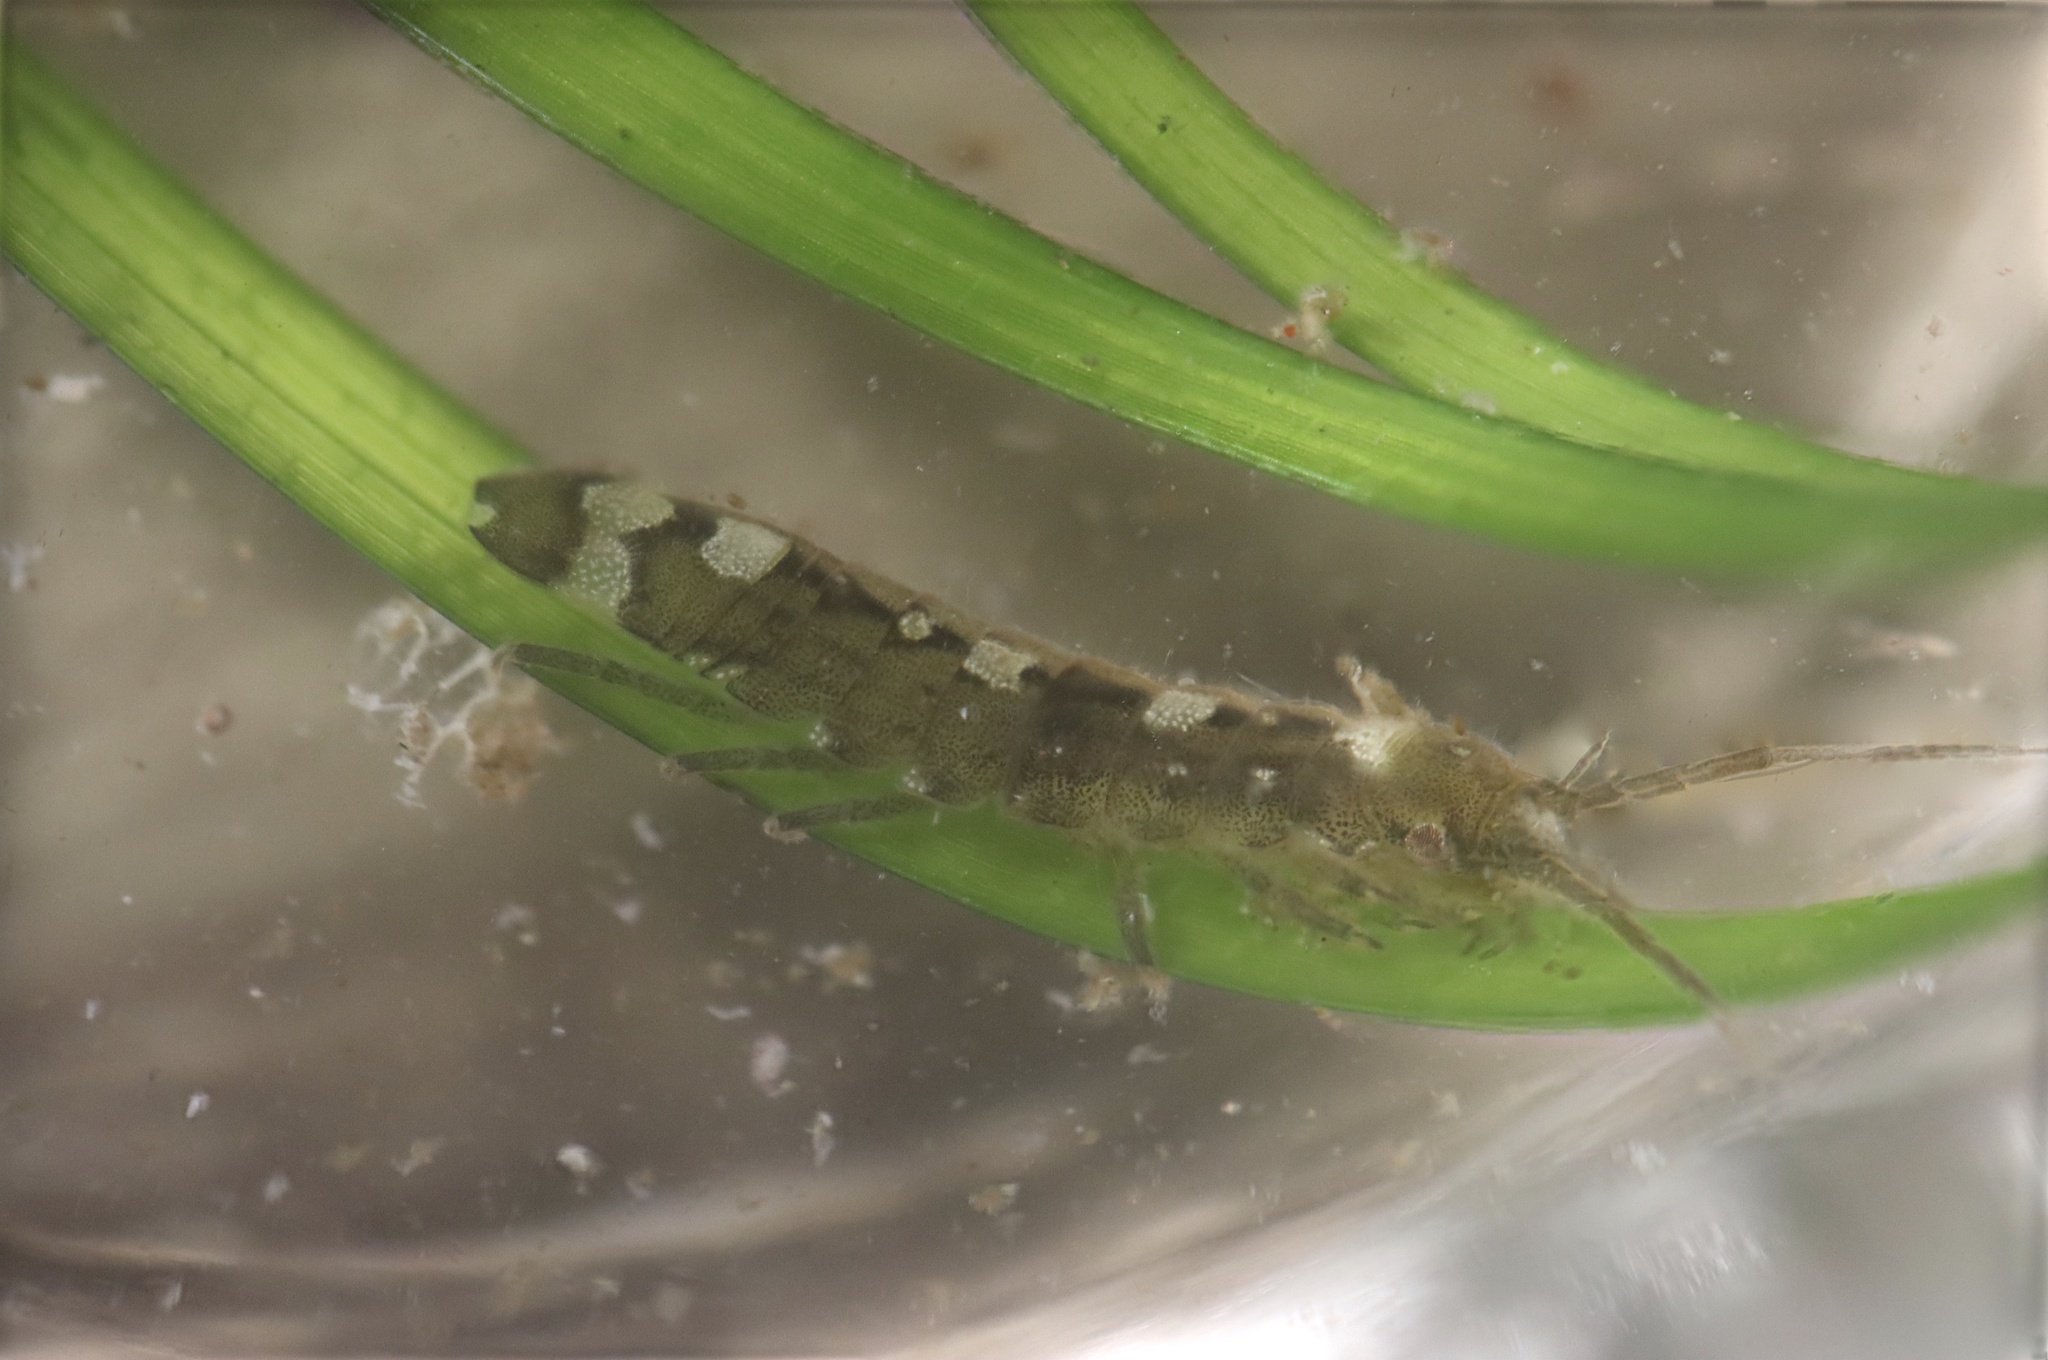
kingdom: Animalia
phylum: Arthropoda
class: Malacostraca
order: Isopoda
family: Idoteidae
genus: Idotea
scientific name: Idotea neglecta
